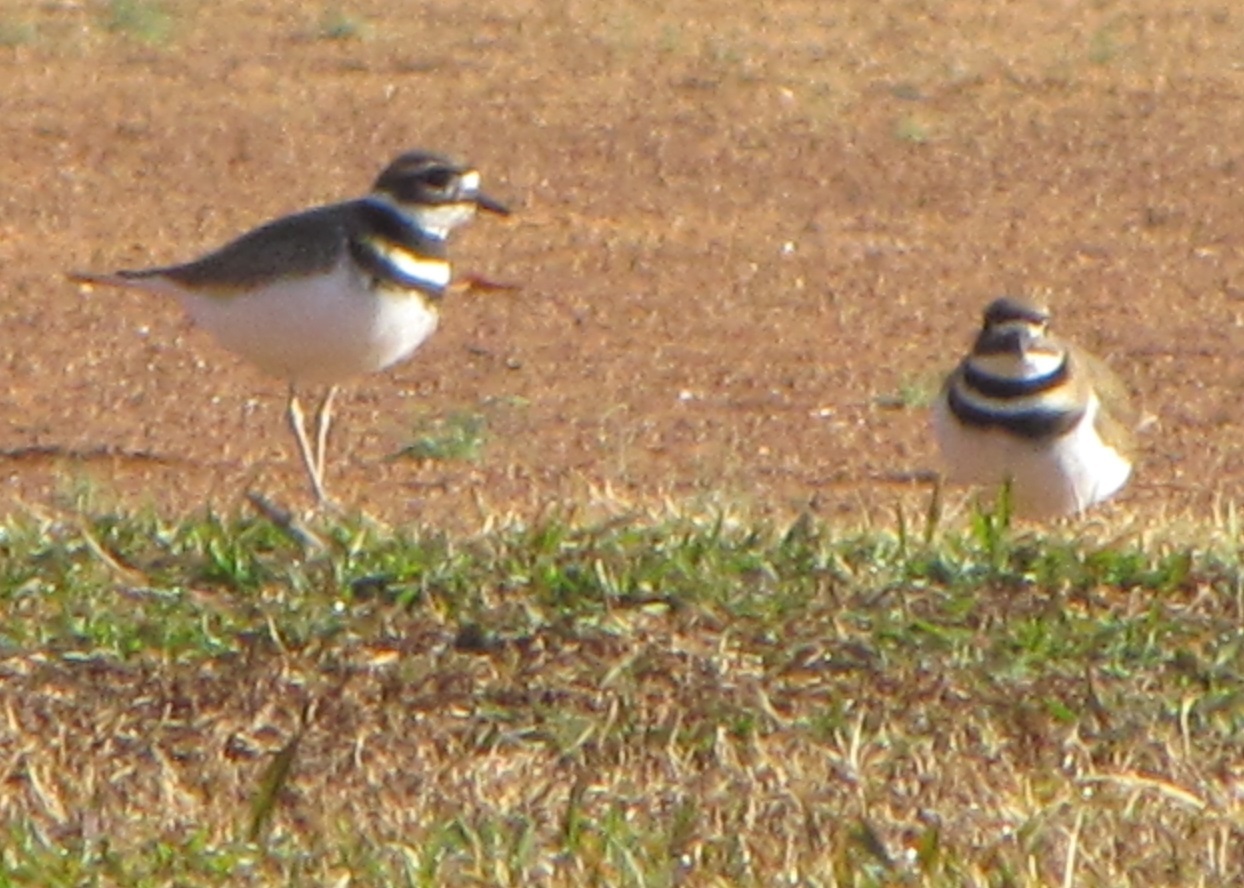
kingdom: Animalia
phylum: Chordata
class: Aves
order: Charadriiformes
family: Charadriidae
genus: Charadrius
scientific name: Charadrius vociferus
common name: Killdeer
